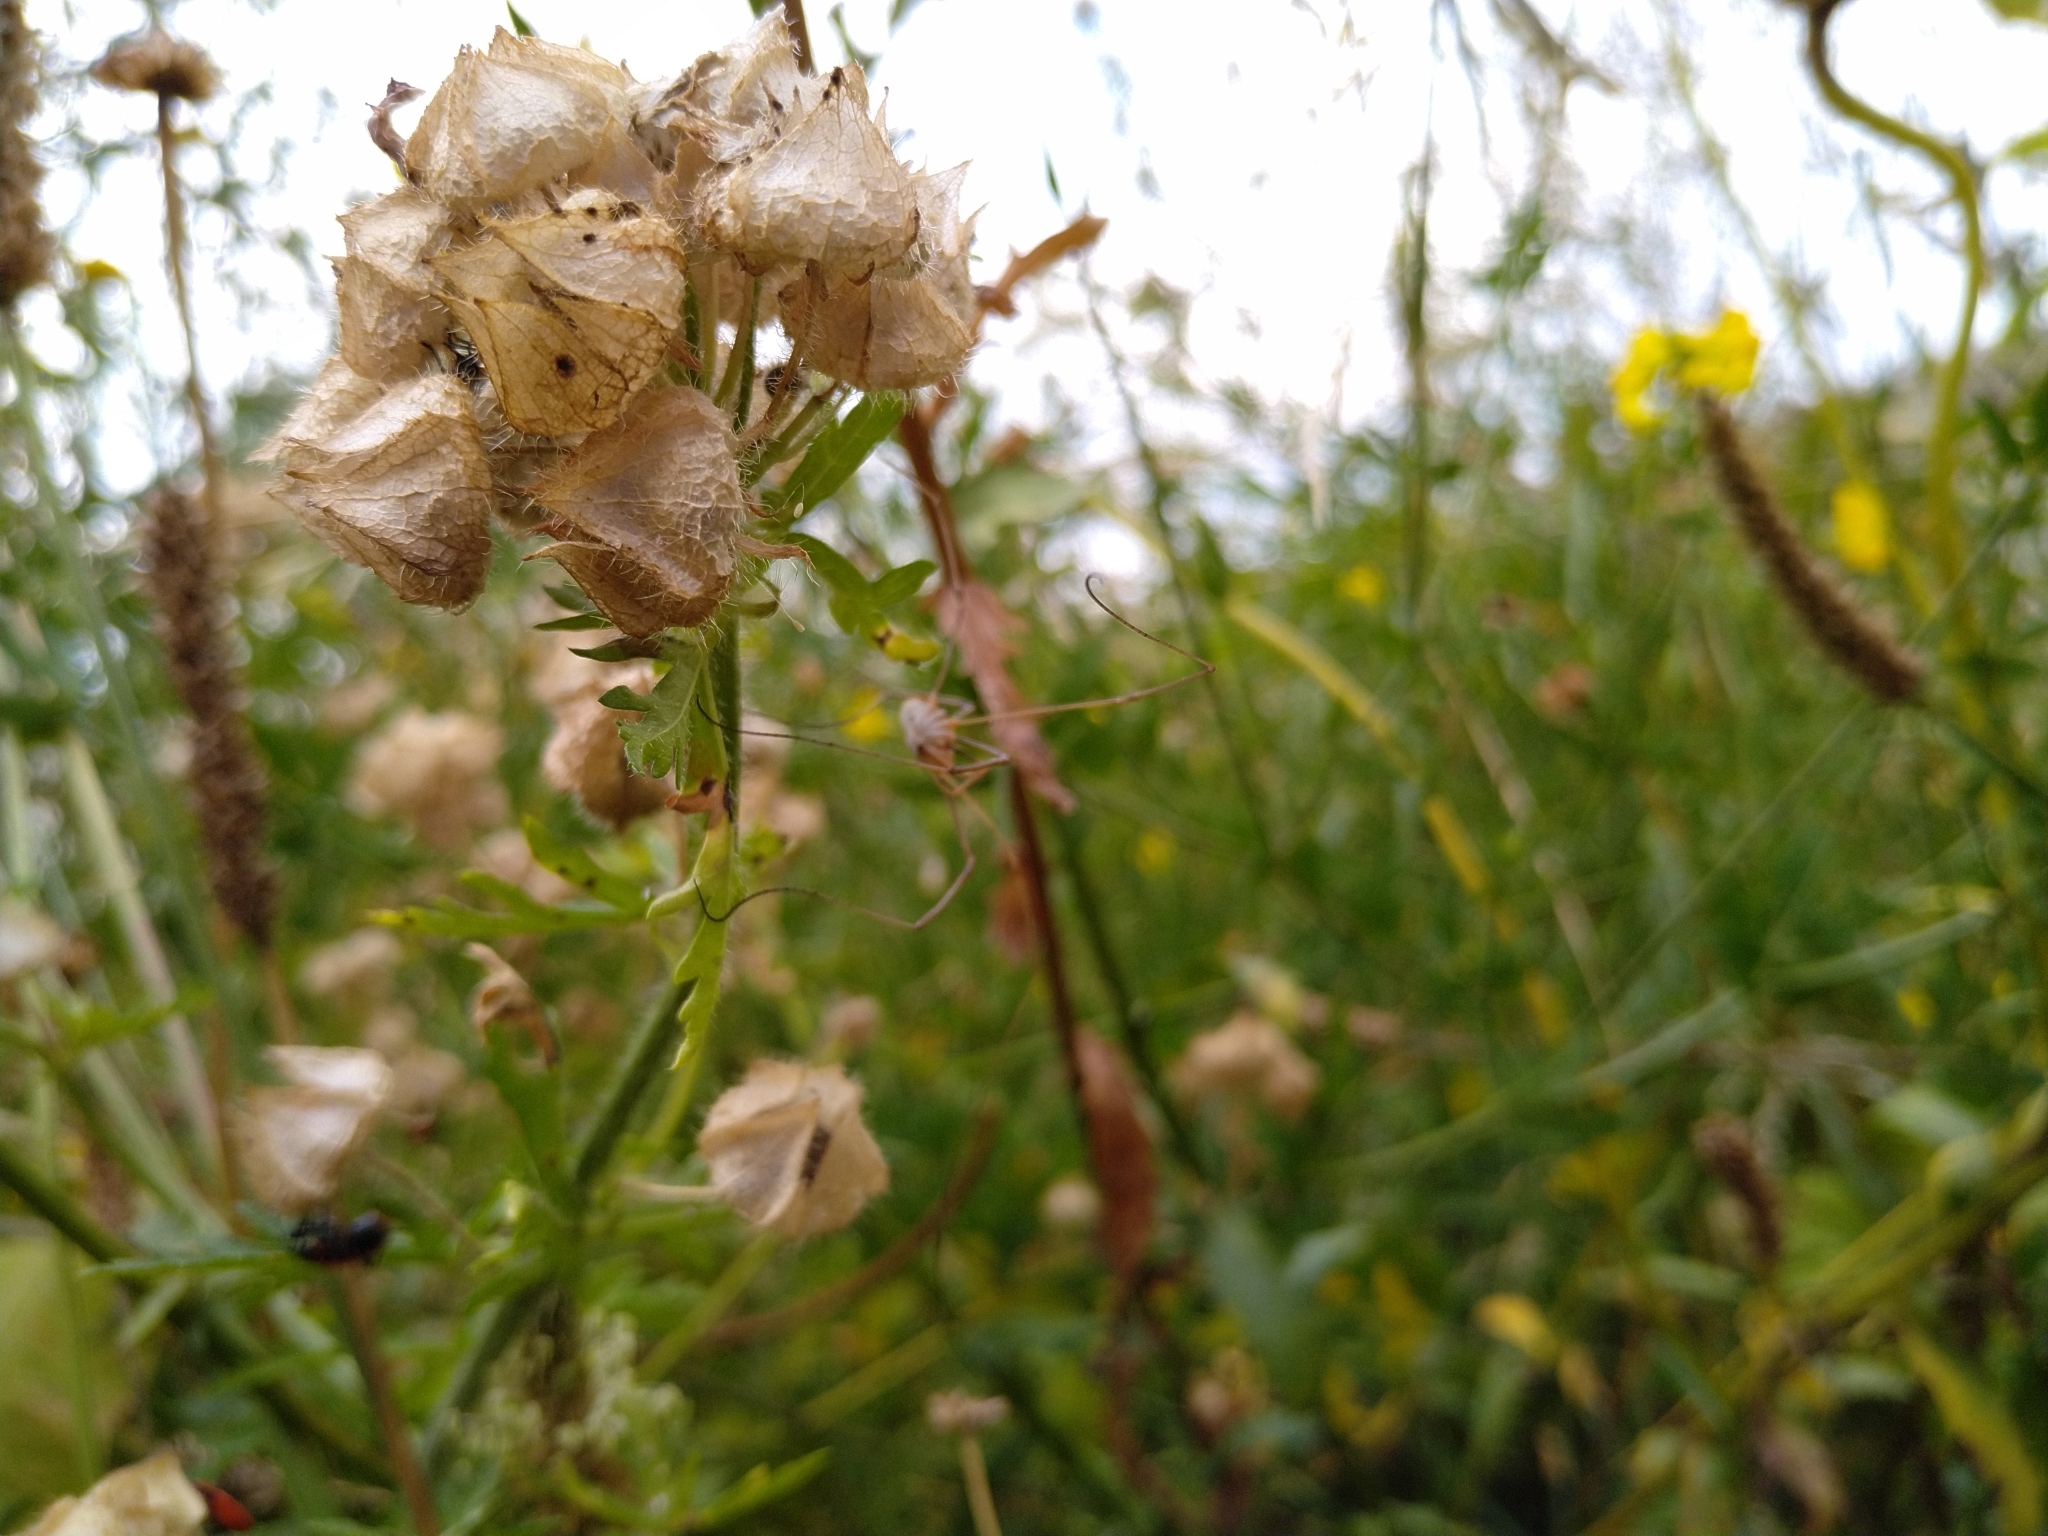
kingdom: Animalia
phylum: Arthropoda
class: Arachnida
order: Opiliones
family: Phalangiidae
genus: Phalangium
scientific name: Phalangium opilio
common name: Daddy longleg
